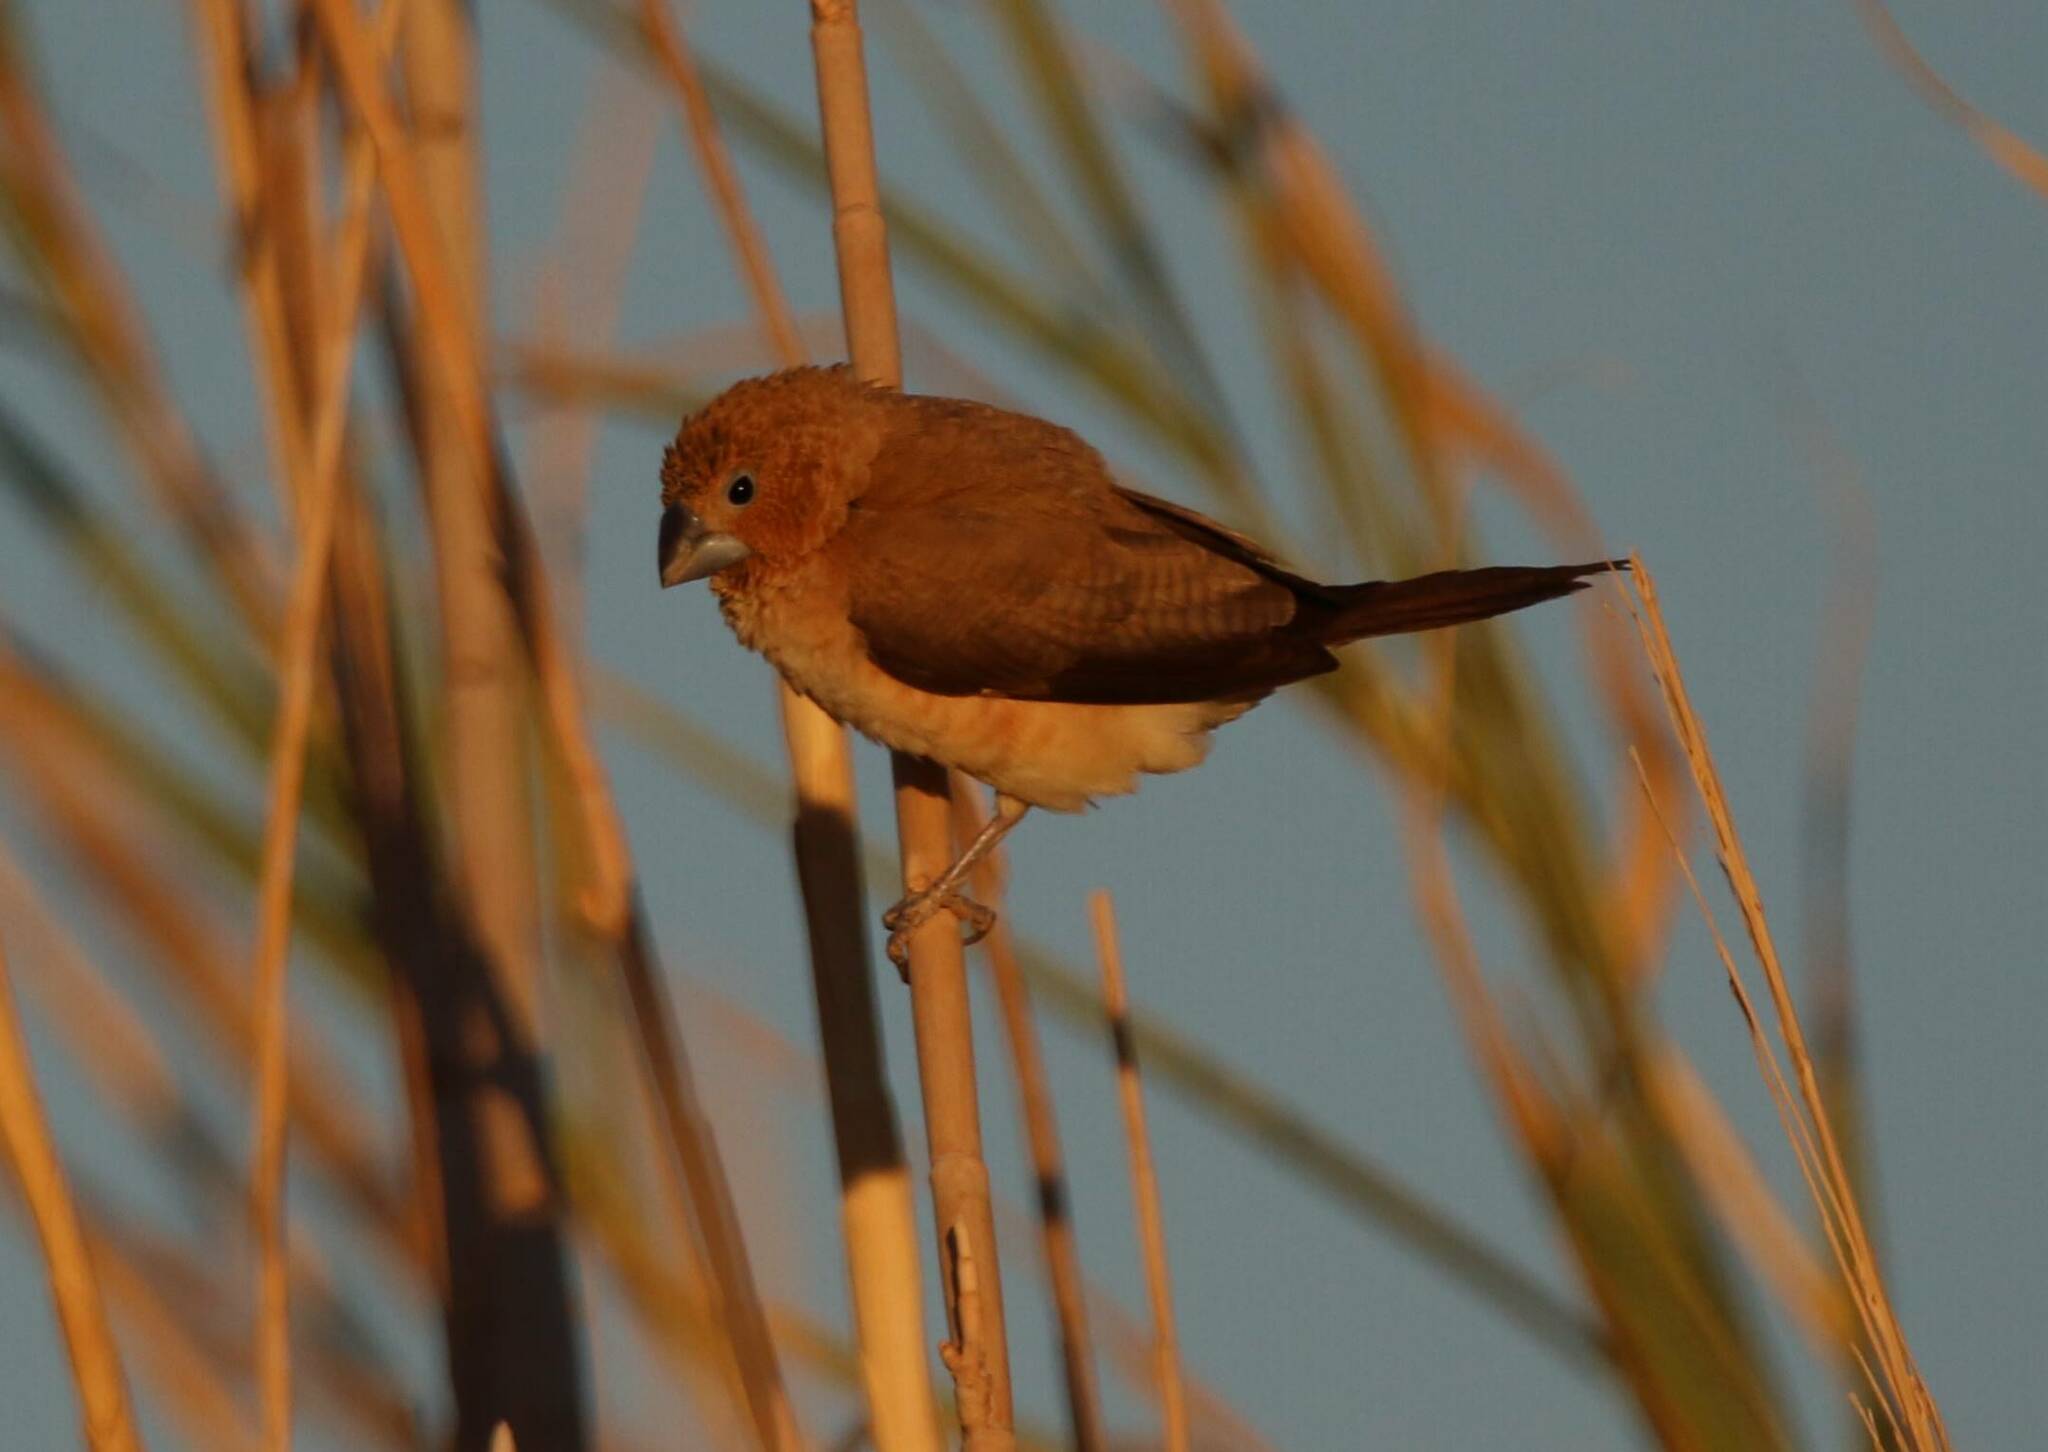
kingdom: Animalia
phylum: Chordata
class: Aves
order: Passeriformes
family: Estrildidae
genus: Euodice
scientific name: Euodice cantans
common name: African silverbill
